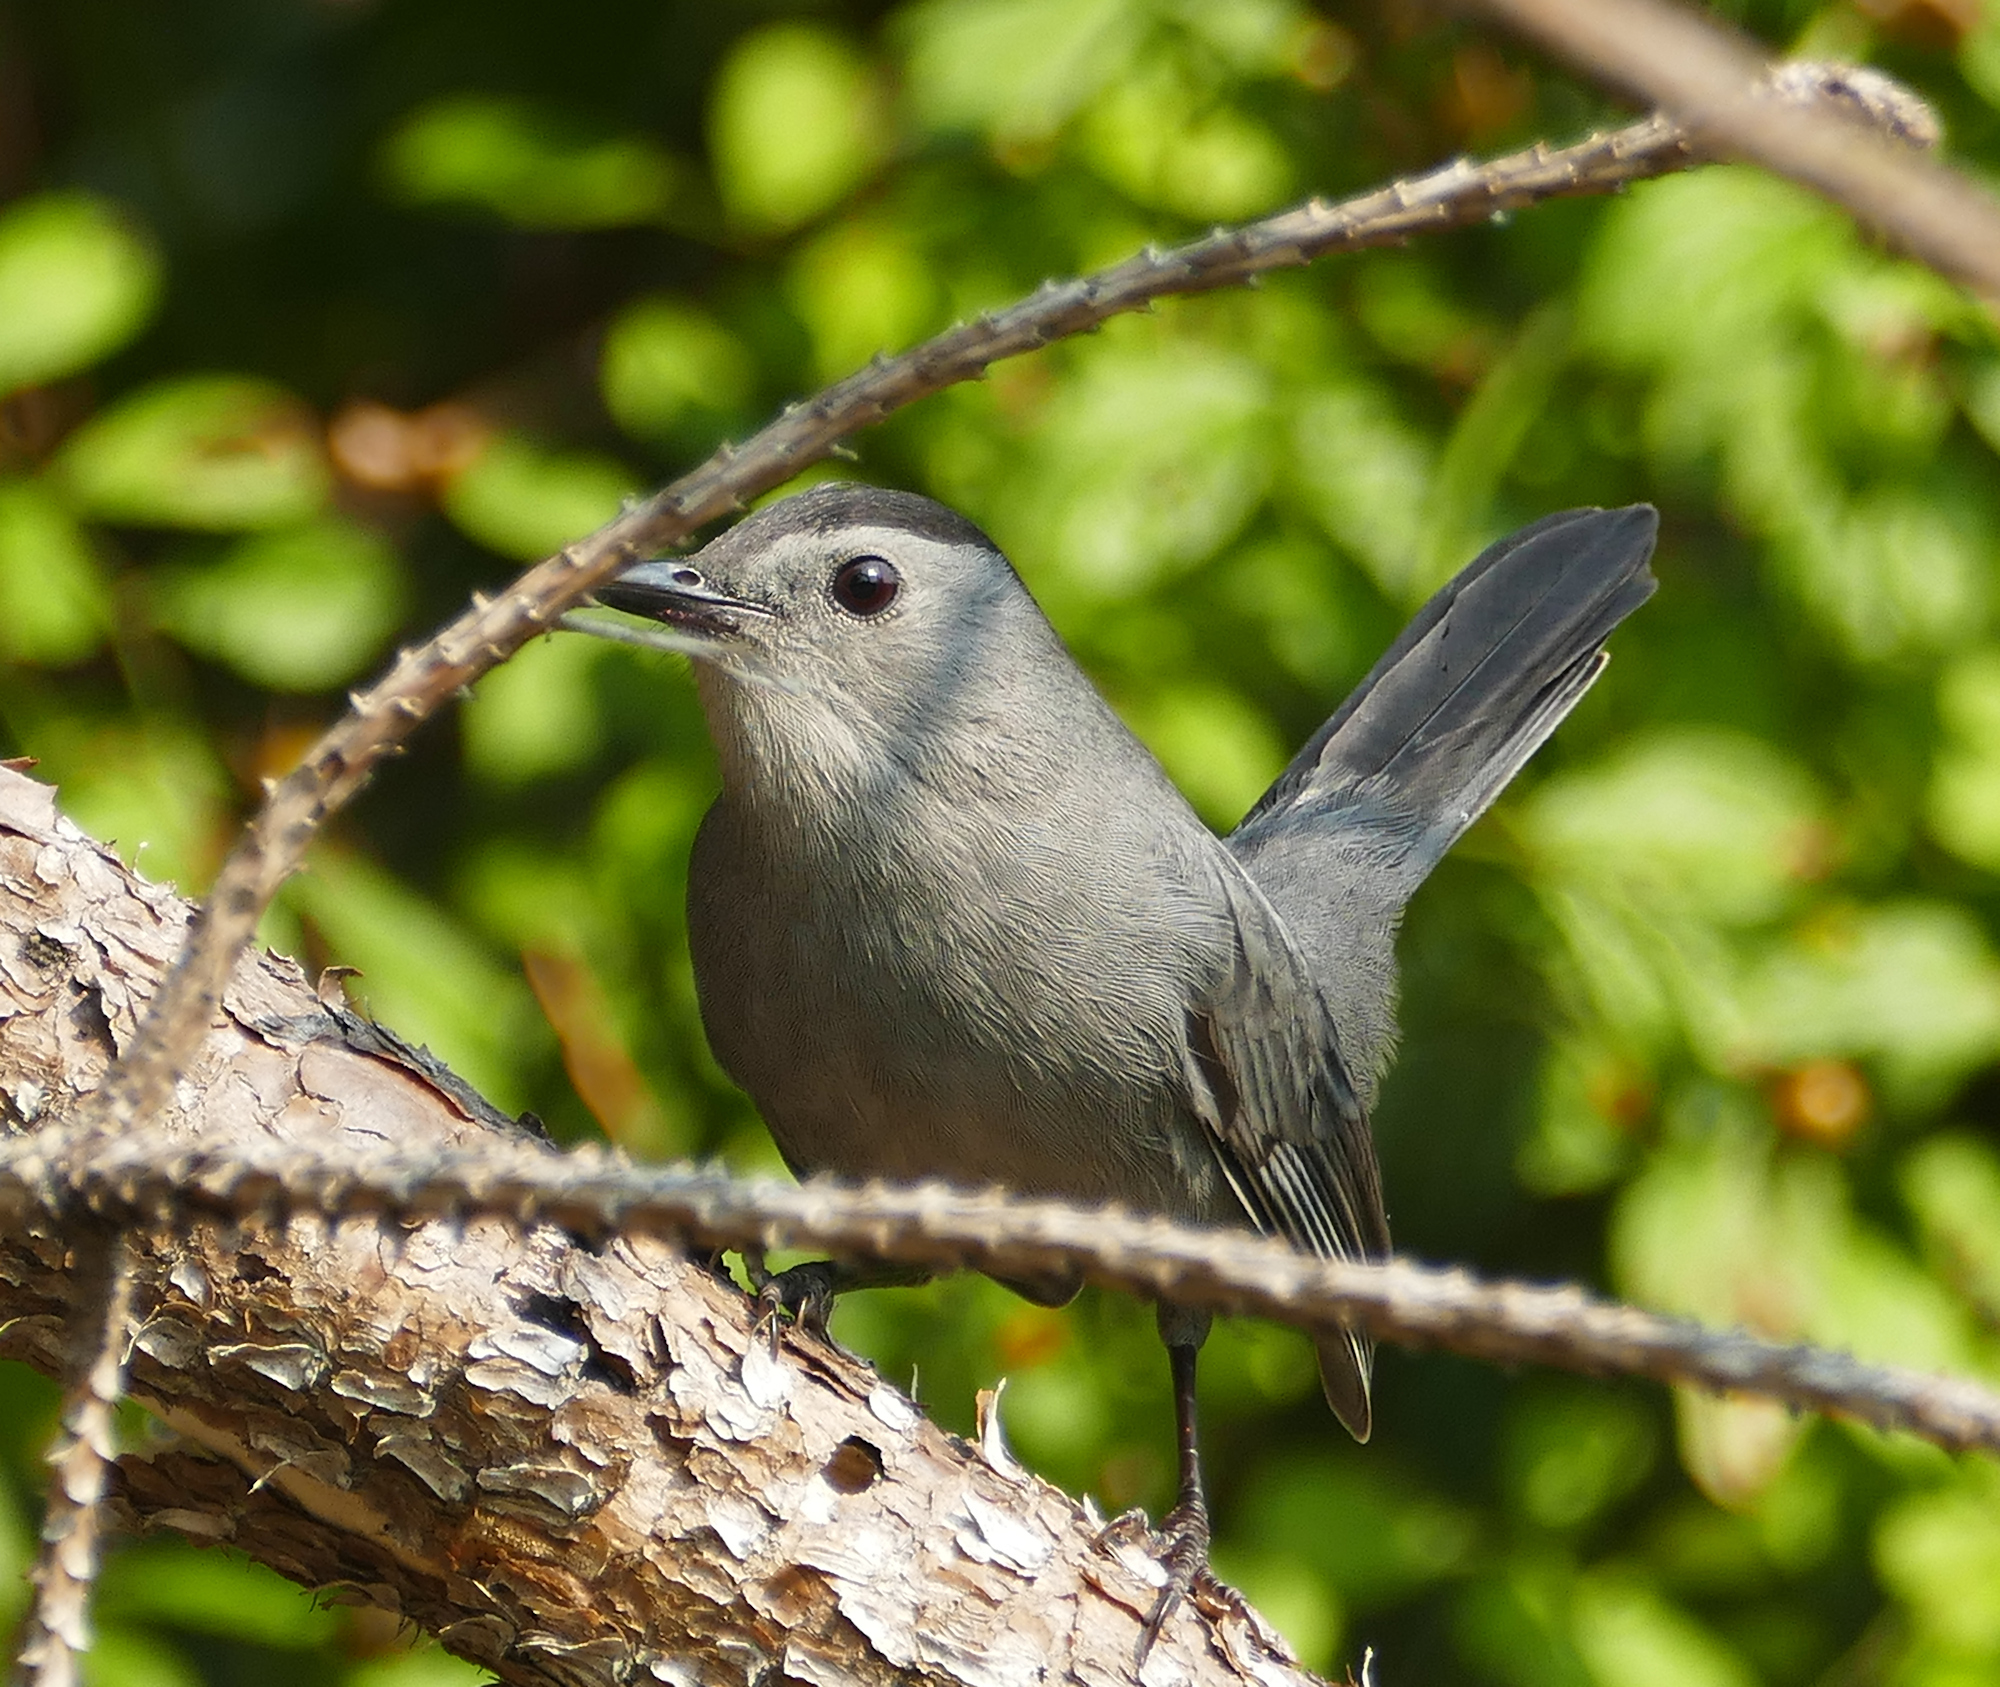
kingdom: Animalia
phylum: Chordata
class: Aves
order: Passeriformes
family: Mimidae
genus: Dumetella
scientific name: Dumetella carolinensis
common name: Gray catbird
